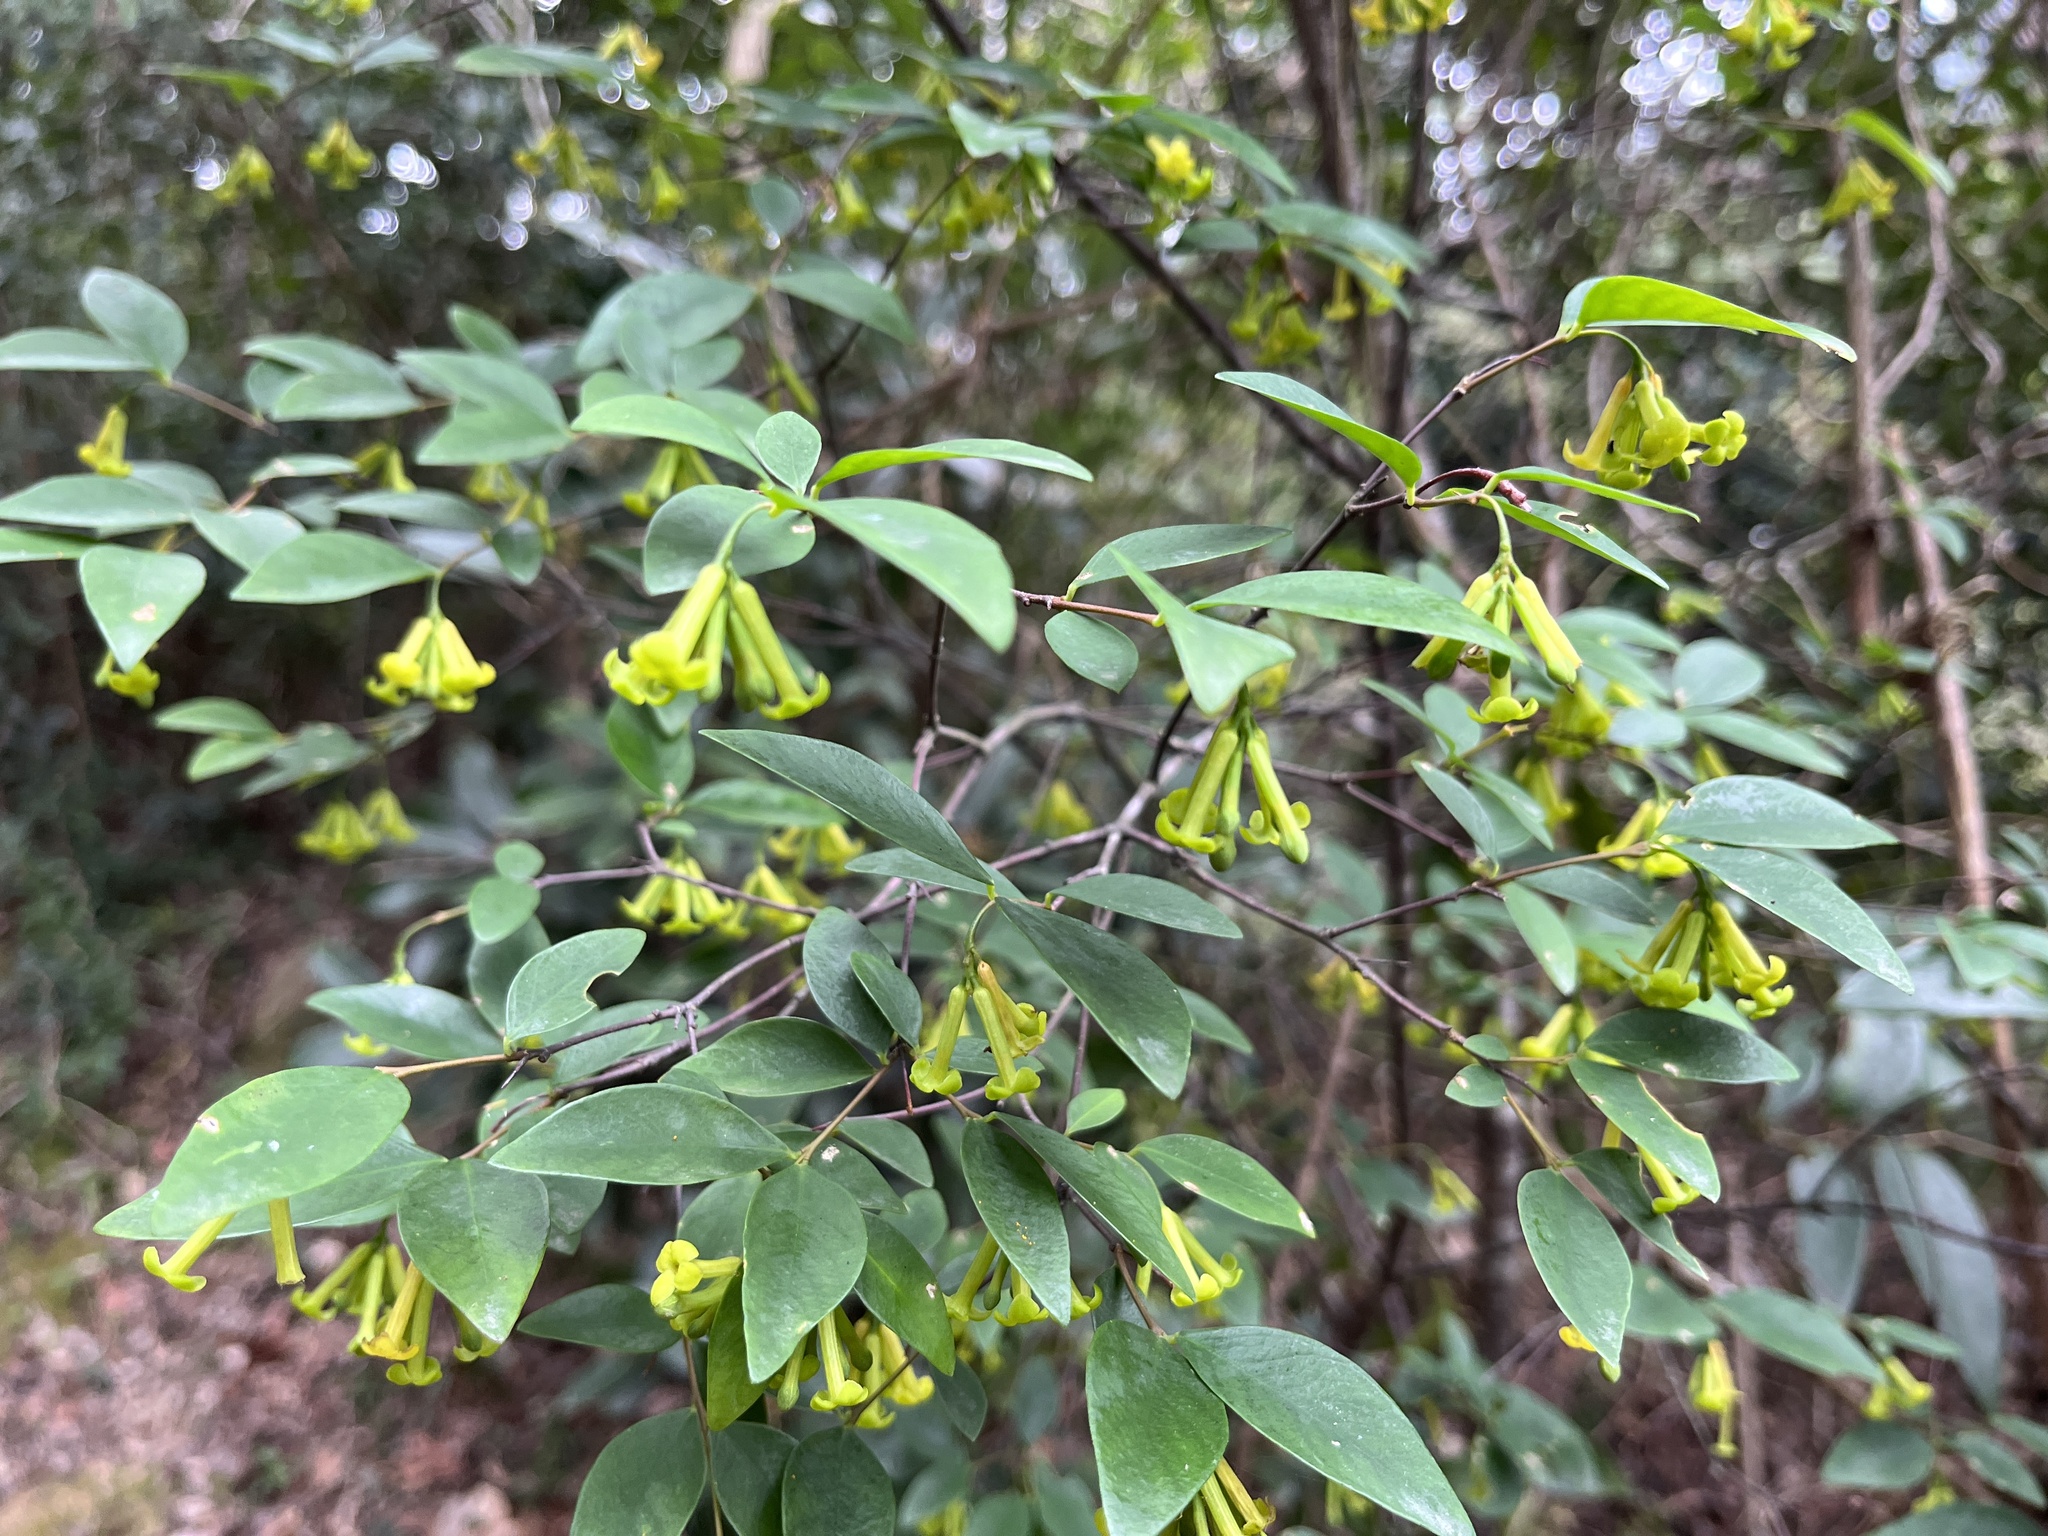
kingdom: Plantae
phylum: Tracheophyta
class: Magnoliopsida
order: Malvales
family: Thymelaeaceae
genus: Wikstroemia
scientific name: Wikstroemia nutans
